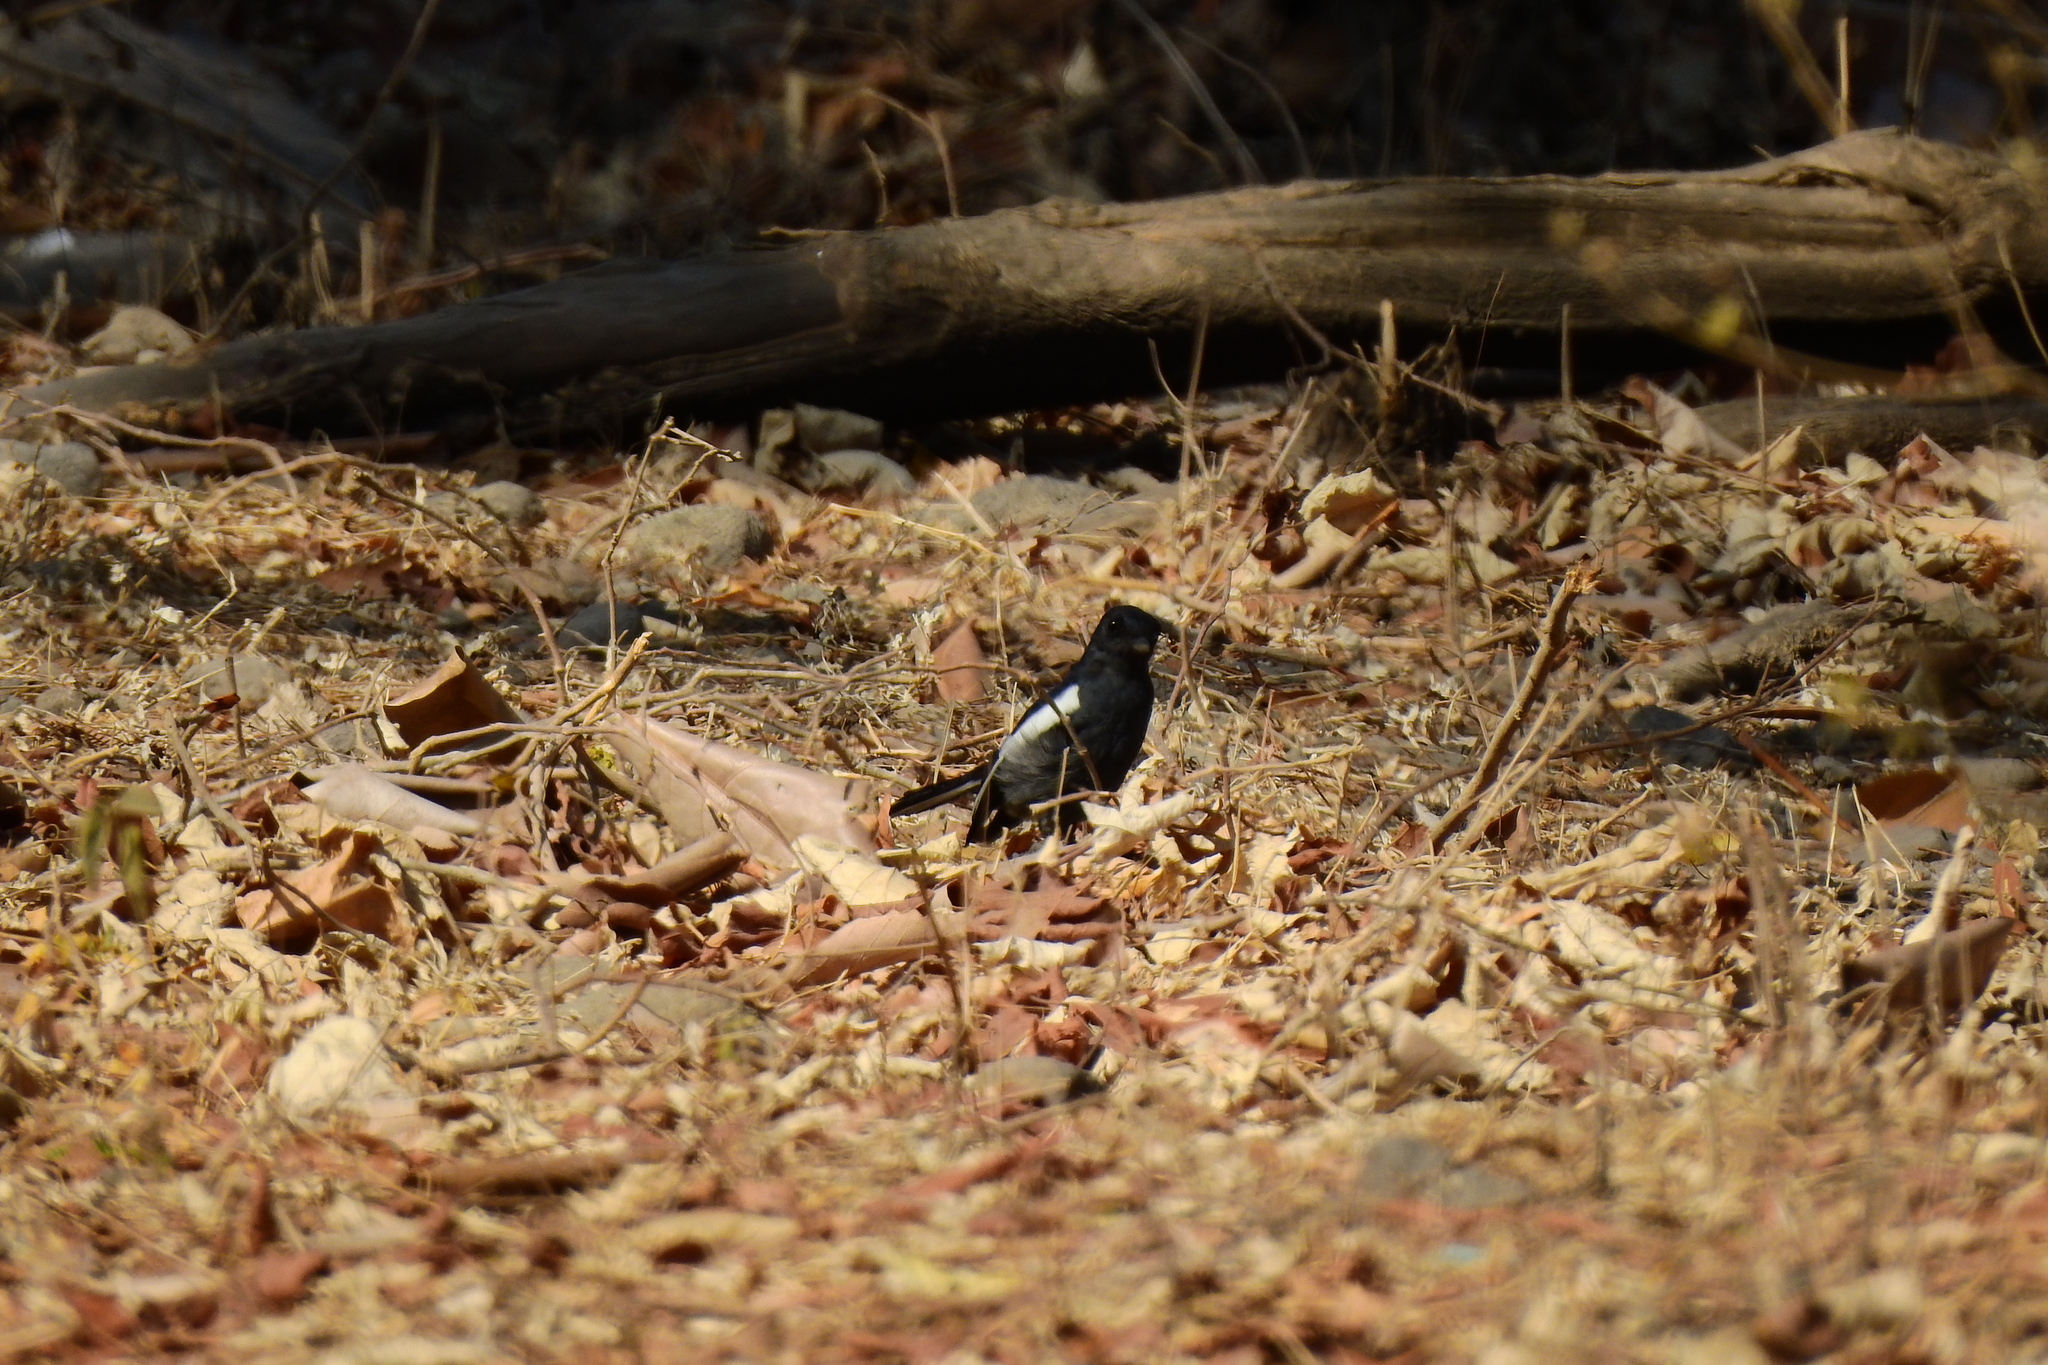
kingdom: Animalia
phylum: Chordata
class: Aves
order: Passeriformes
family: Muscicapidae
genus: Copsychus
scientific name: Copsychus saularis
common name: Oriental magpie-robin
